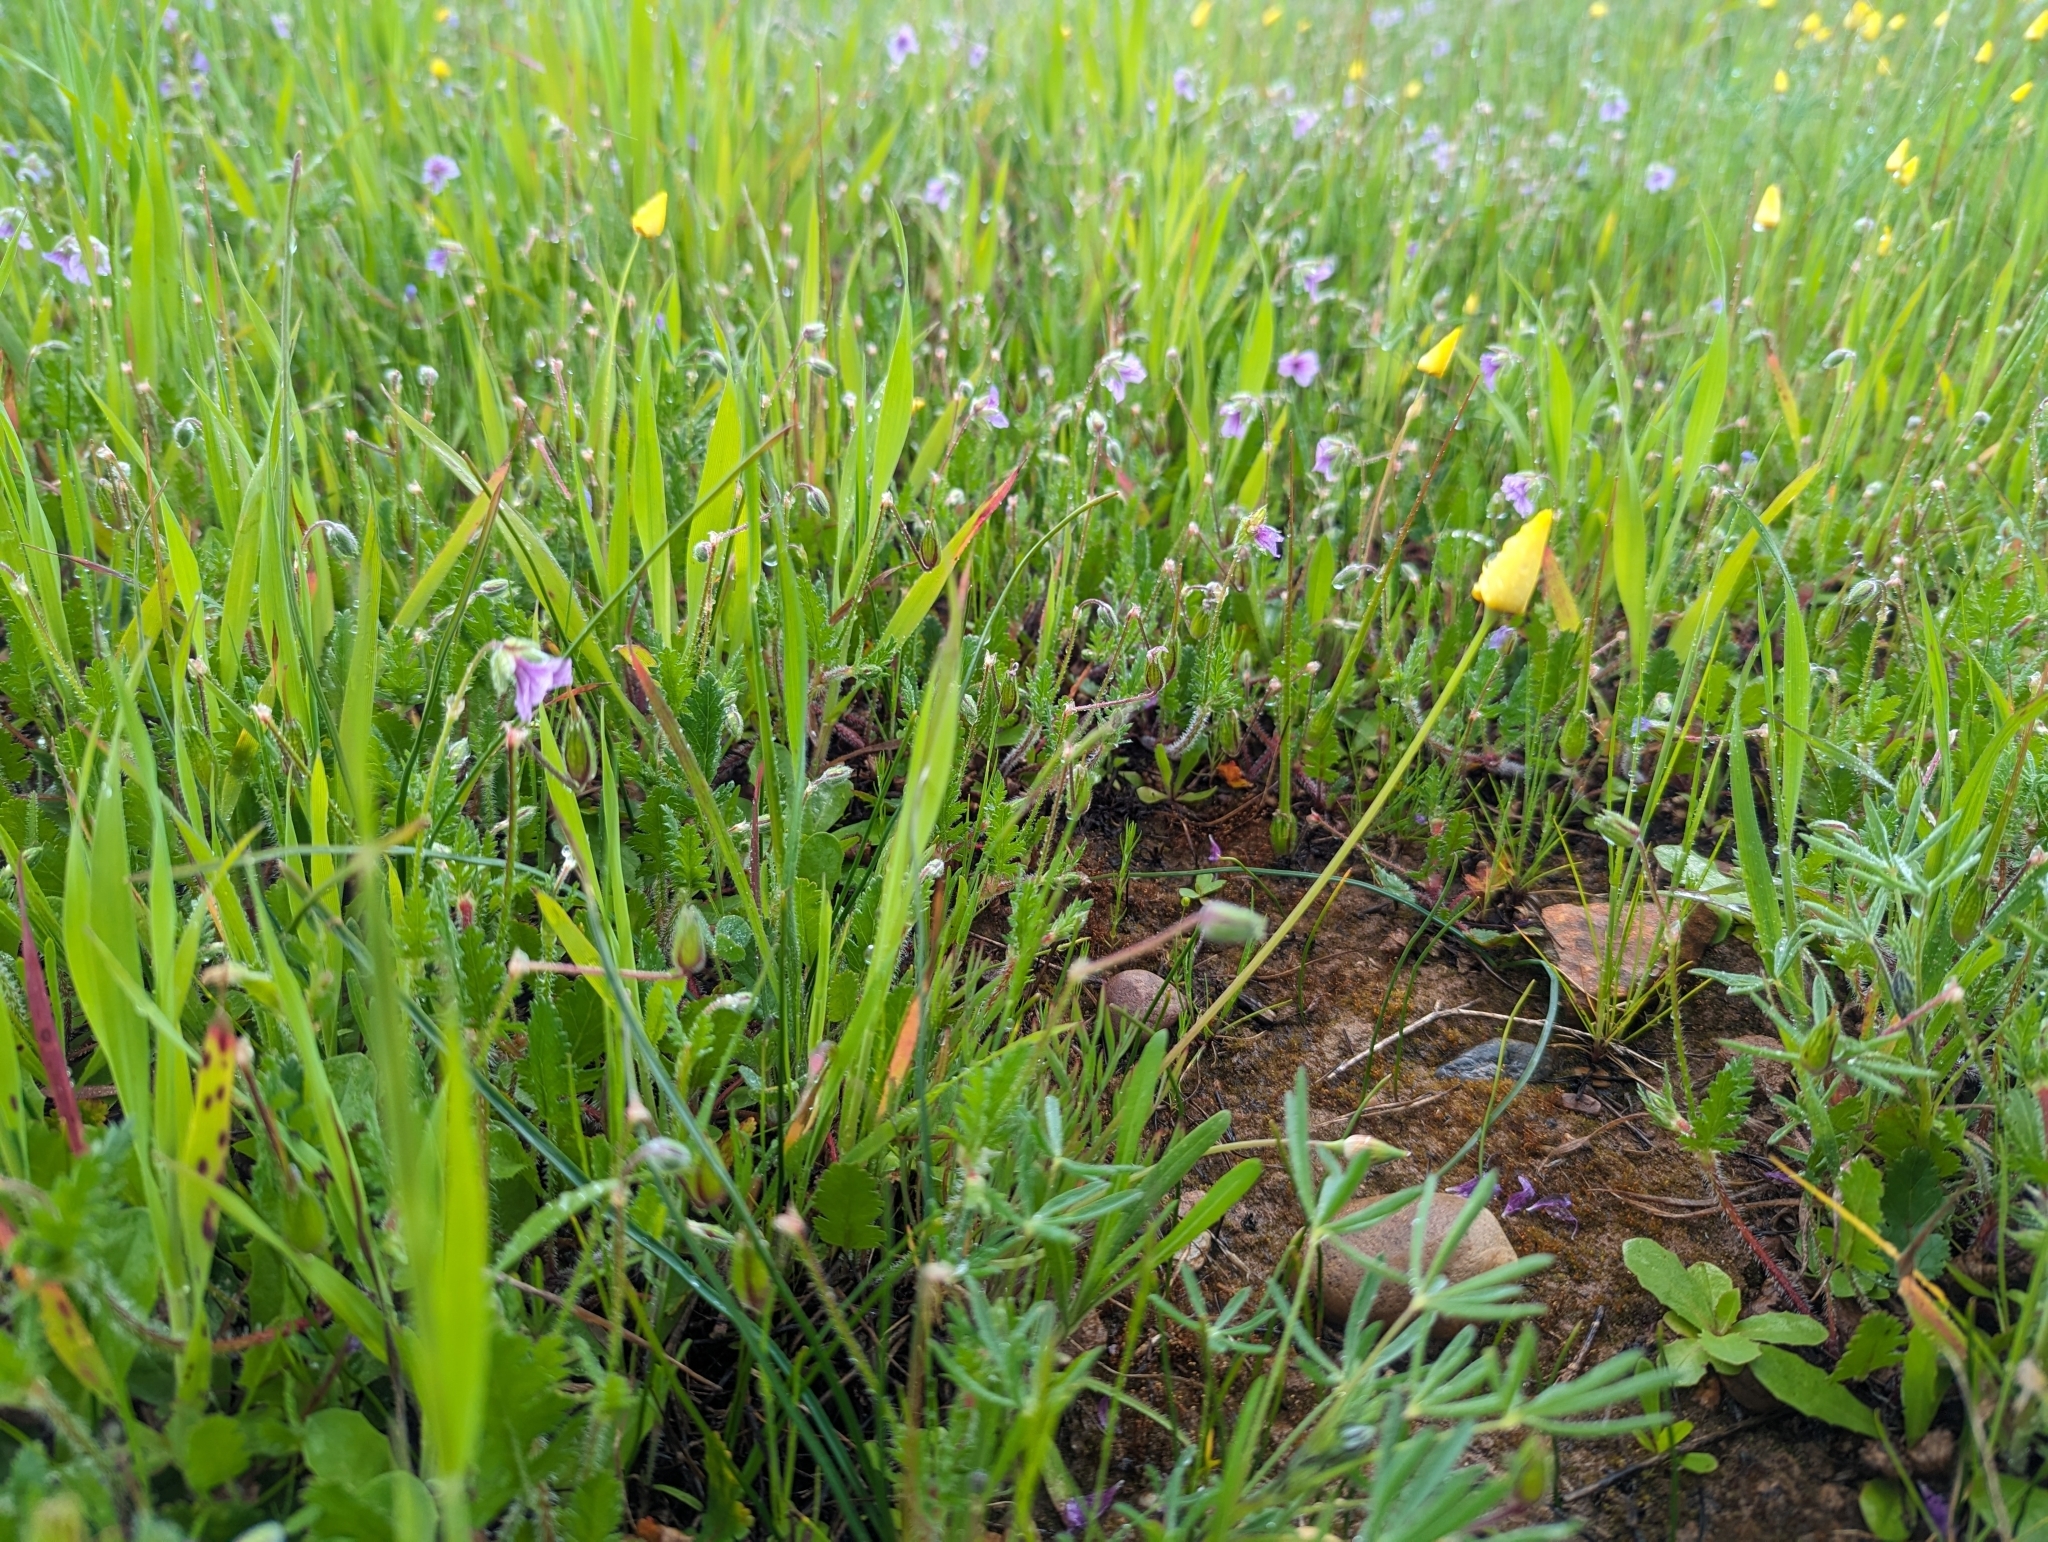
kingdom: Plantae
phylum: Tracheophyta
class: Magnoliopsida
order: Ranunculales
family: Papaveraceae
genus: Eschscholzia
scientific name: Eschscholzia lobbii
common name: Frying-pans
